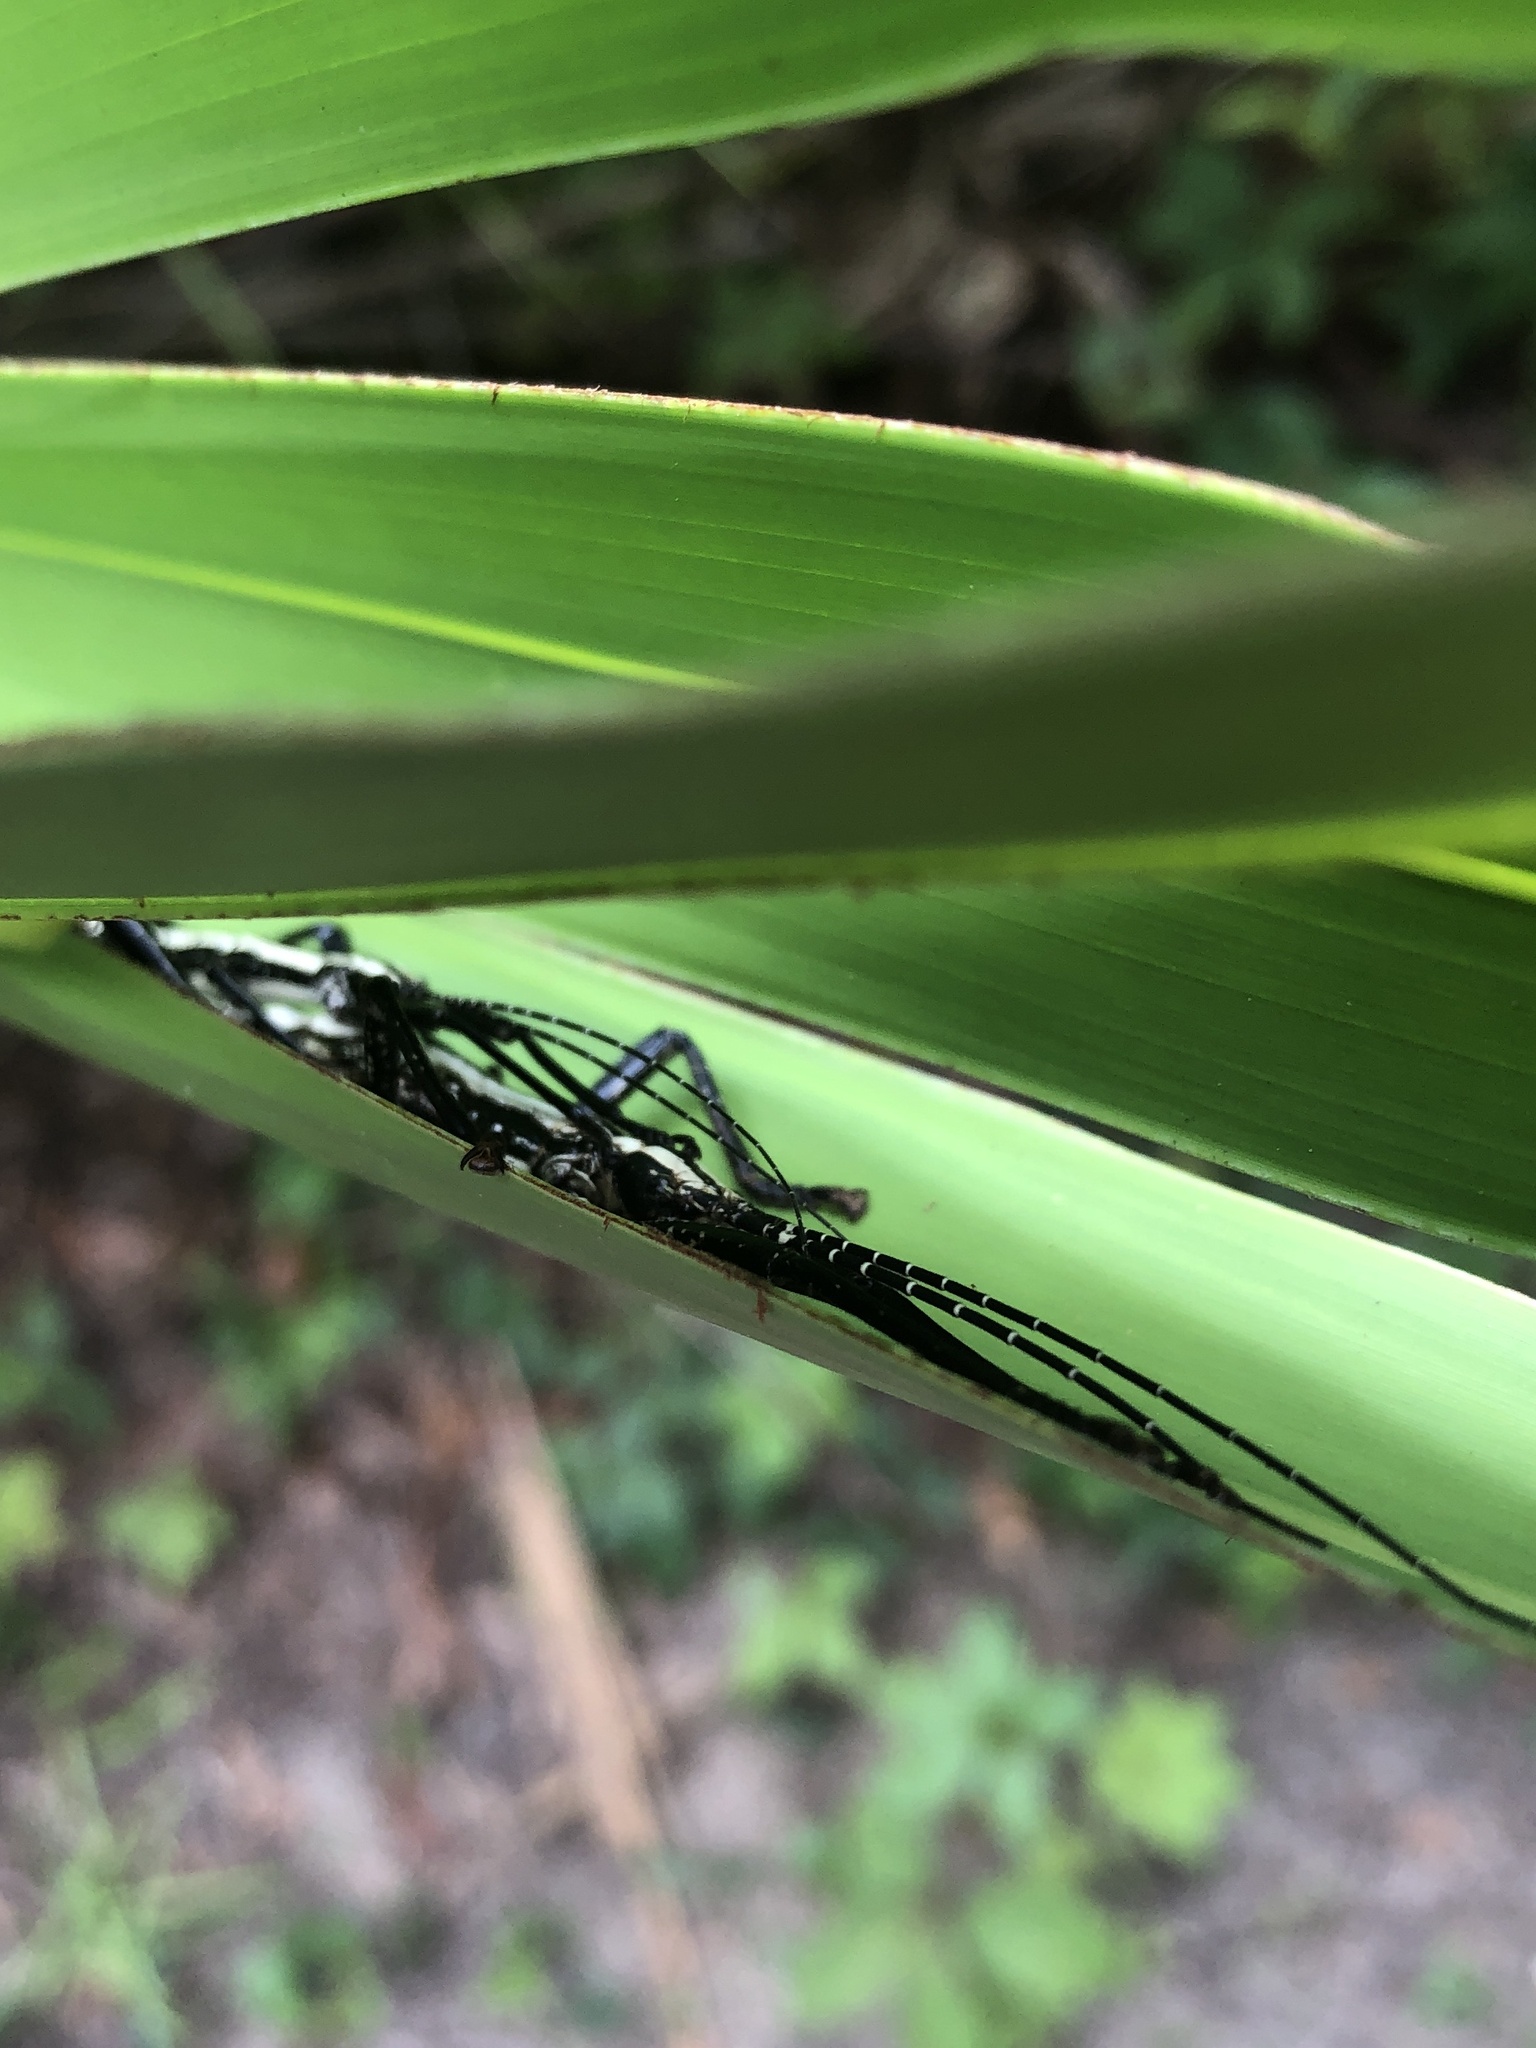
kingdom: Animalia
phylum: Arthropoda
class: Insecta
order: Phasmida
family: Pseudophasmatidae
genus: Anisomorpha
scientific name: Anisomorpha buprestoides
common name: Florida stick insect
